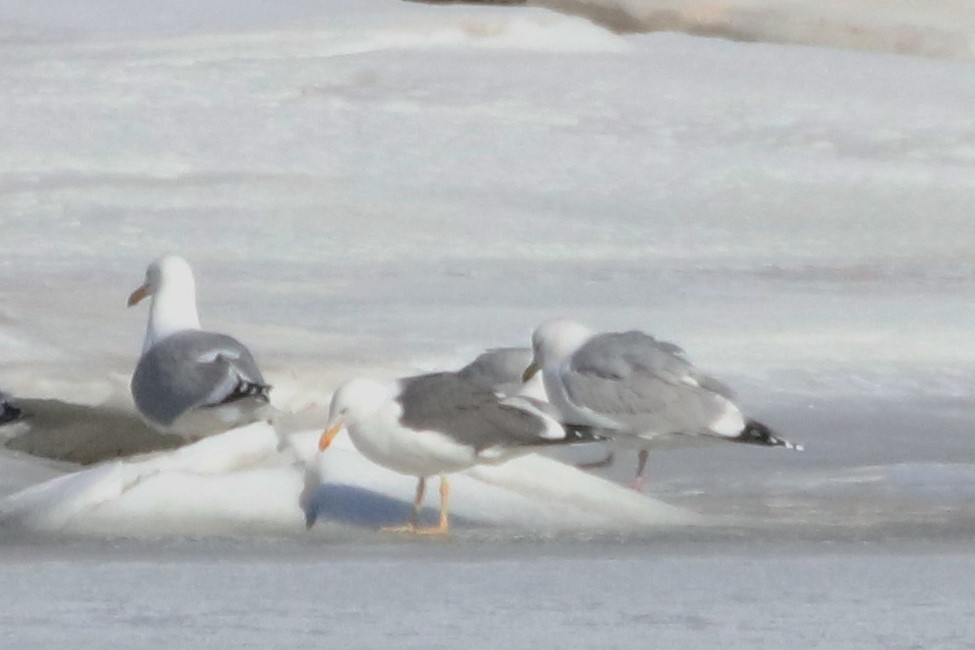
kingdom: Animalia
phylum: Chordata
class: Aves
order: Charadriiformes
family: Laridae
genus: Larus
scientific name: Larus fuscus
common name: Lesser black-backed gull
